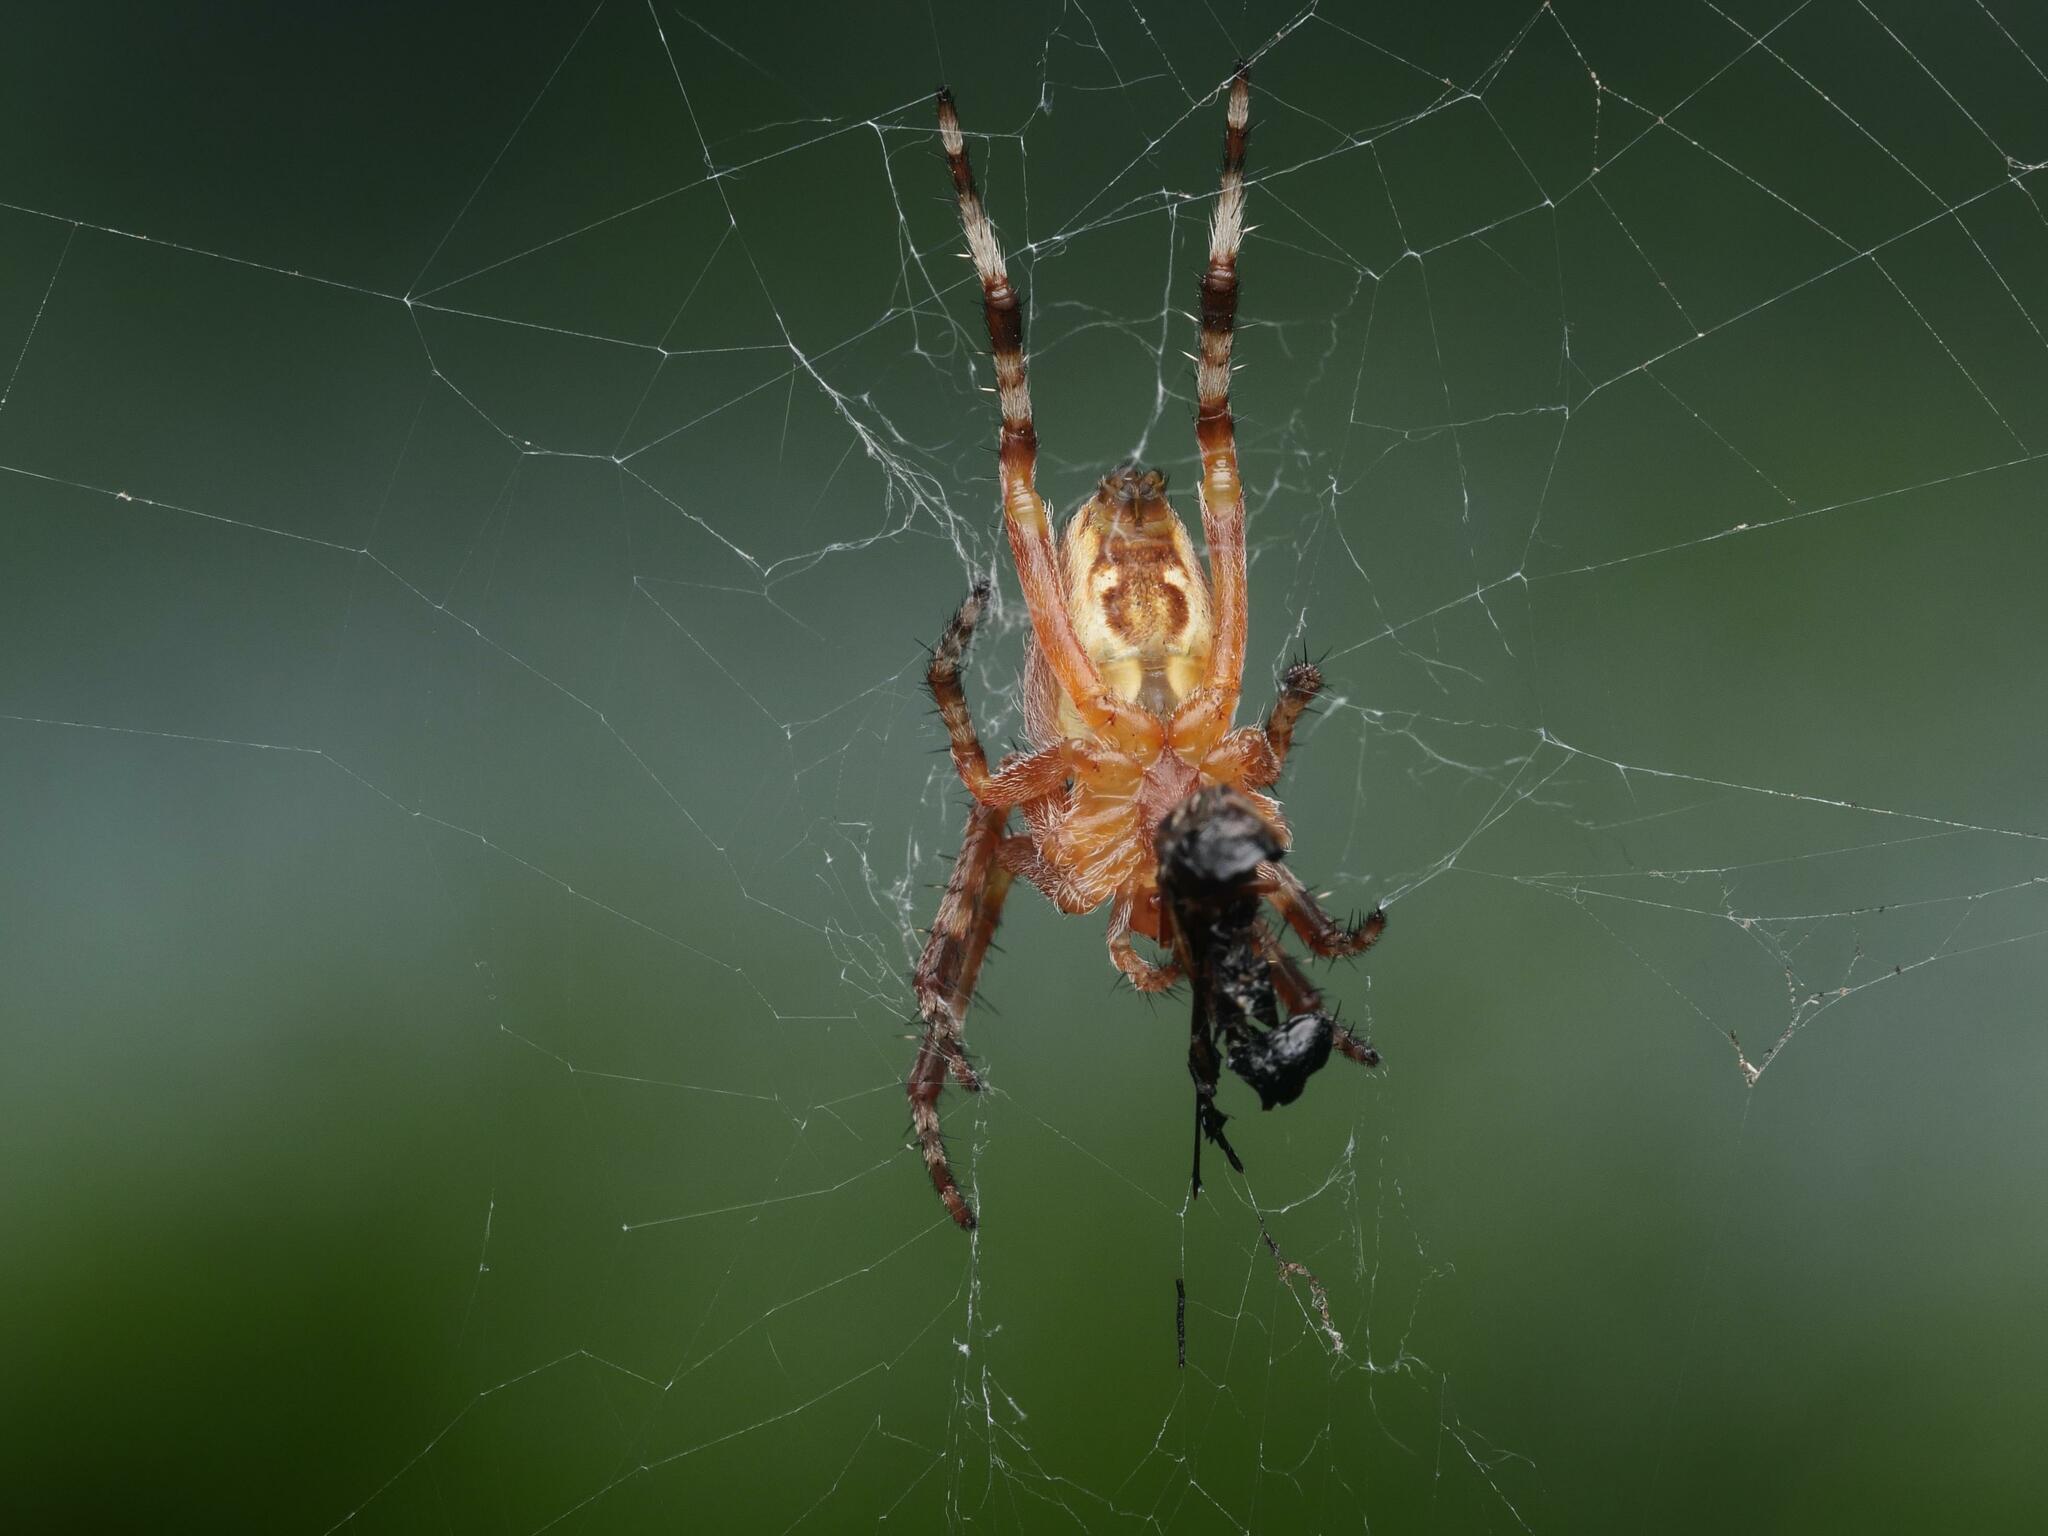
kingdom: Animalia
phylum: Arthropoda
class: Arachnida
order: Araneae
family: Araneidae
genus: Araneus
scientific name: Araneus diadematus
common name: Cross orbweaver
